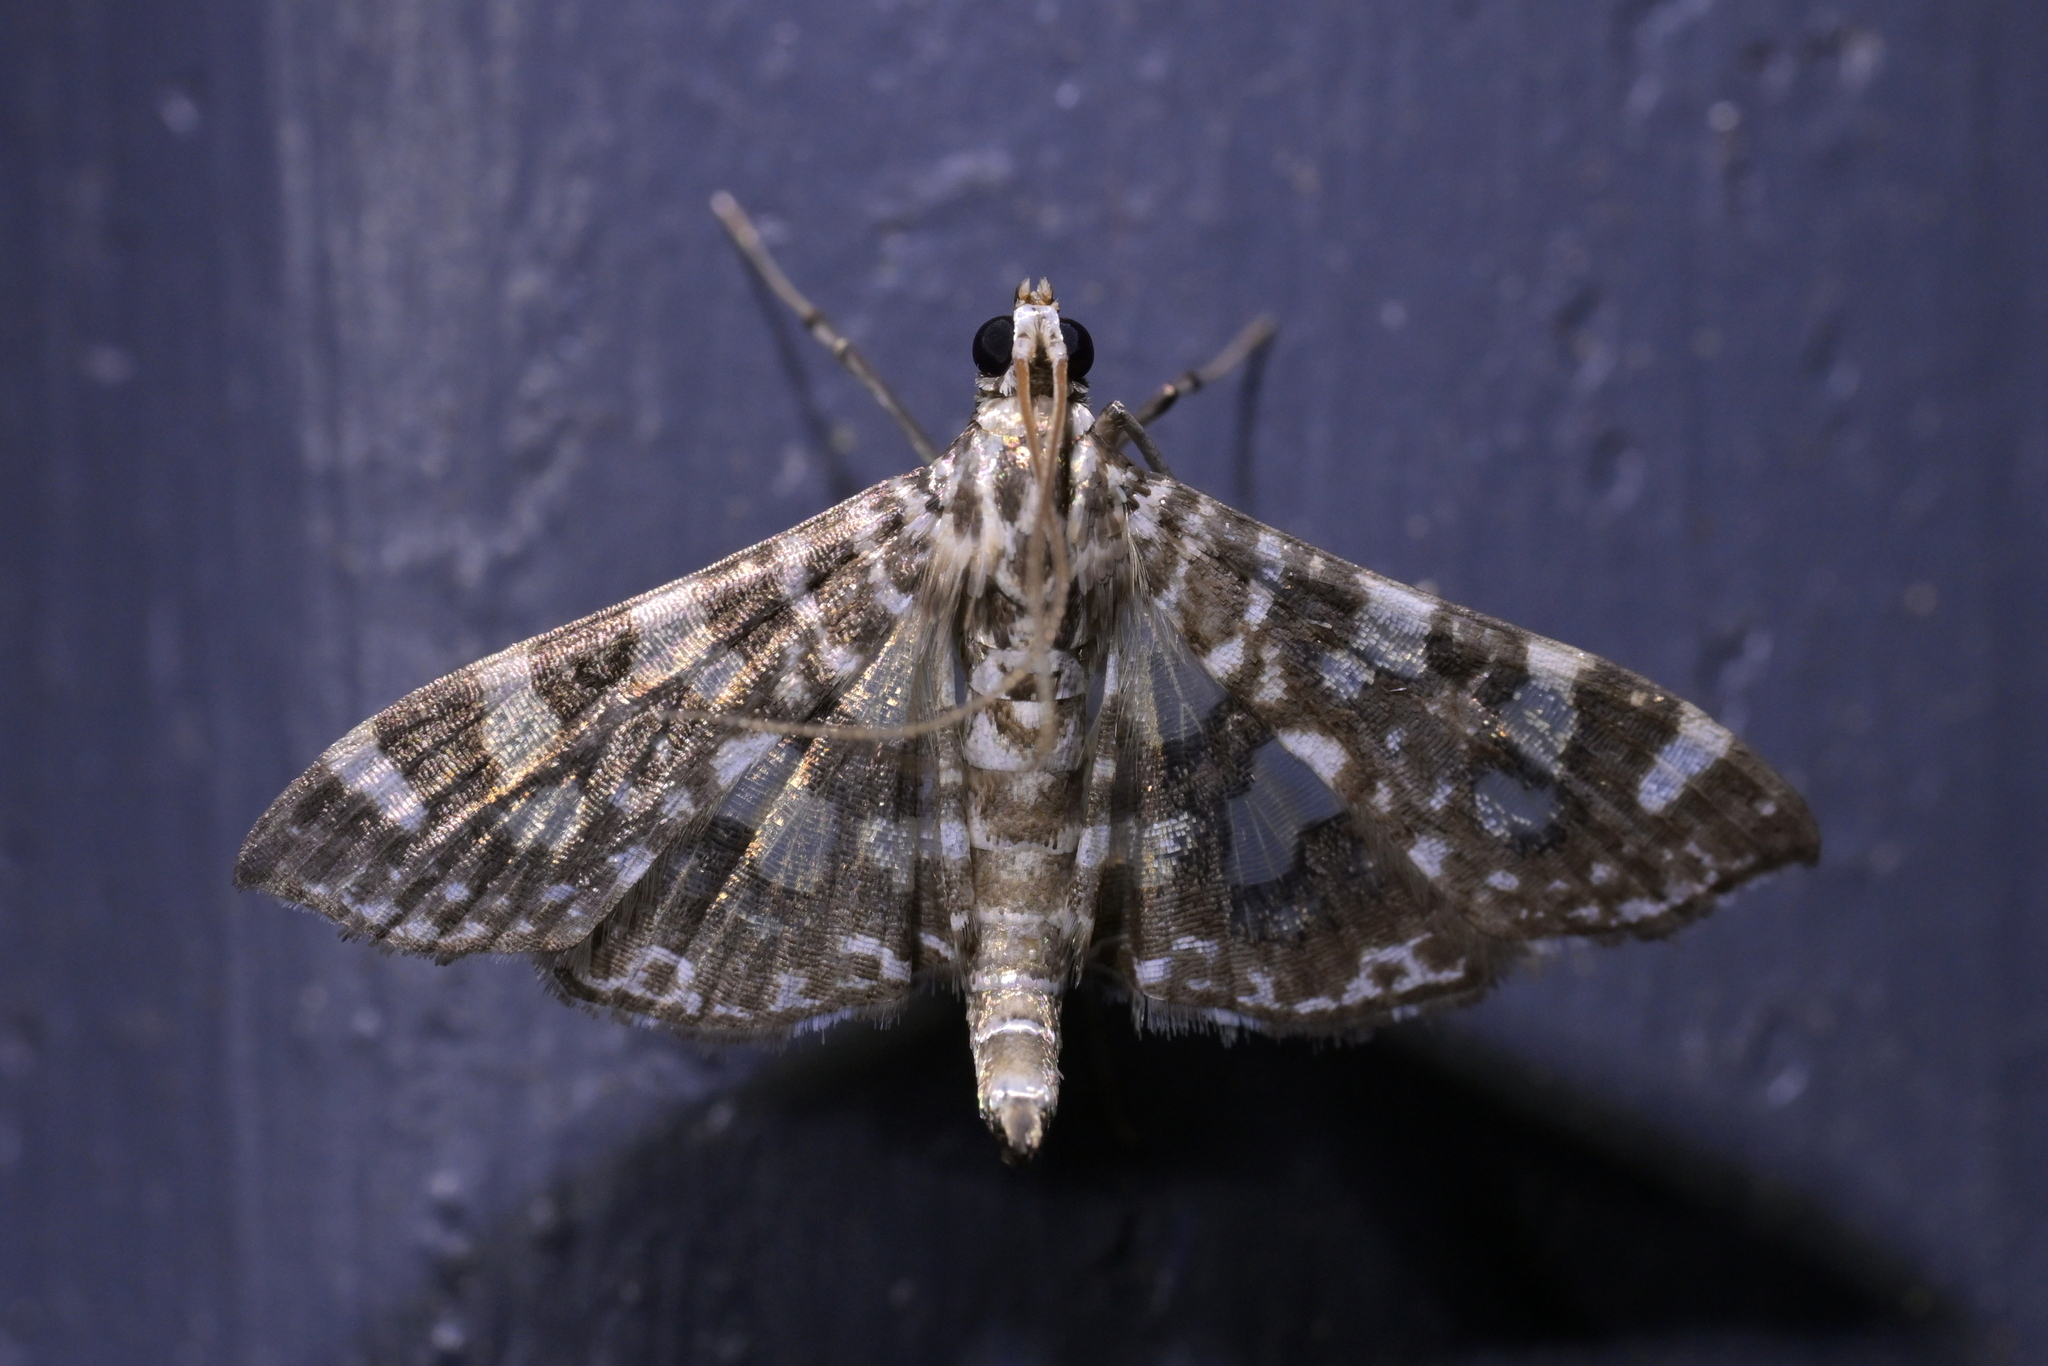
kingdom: Animalia
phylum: Arthropoda
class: Insecta
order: Lepidoptera
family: Crambidae
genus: Glyphodes
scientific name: Glyphodes onychinalis
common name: Swan plant moth
